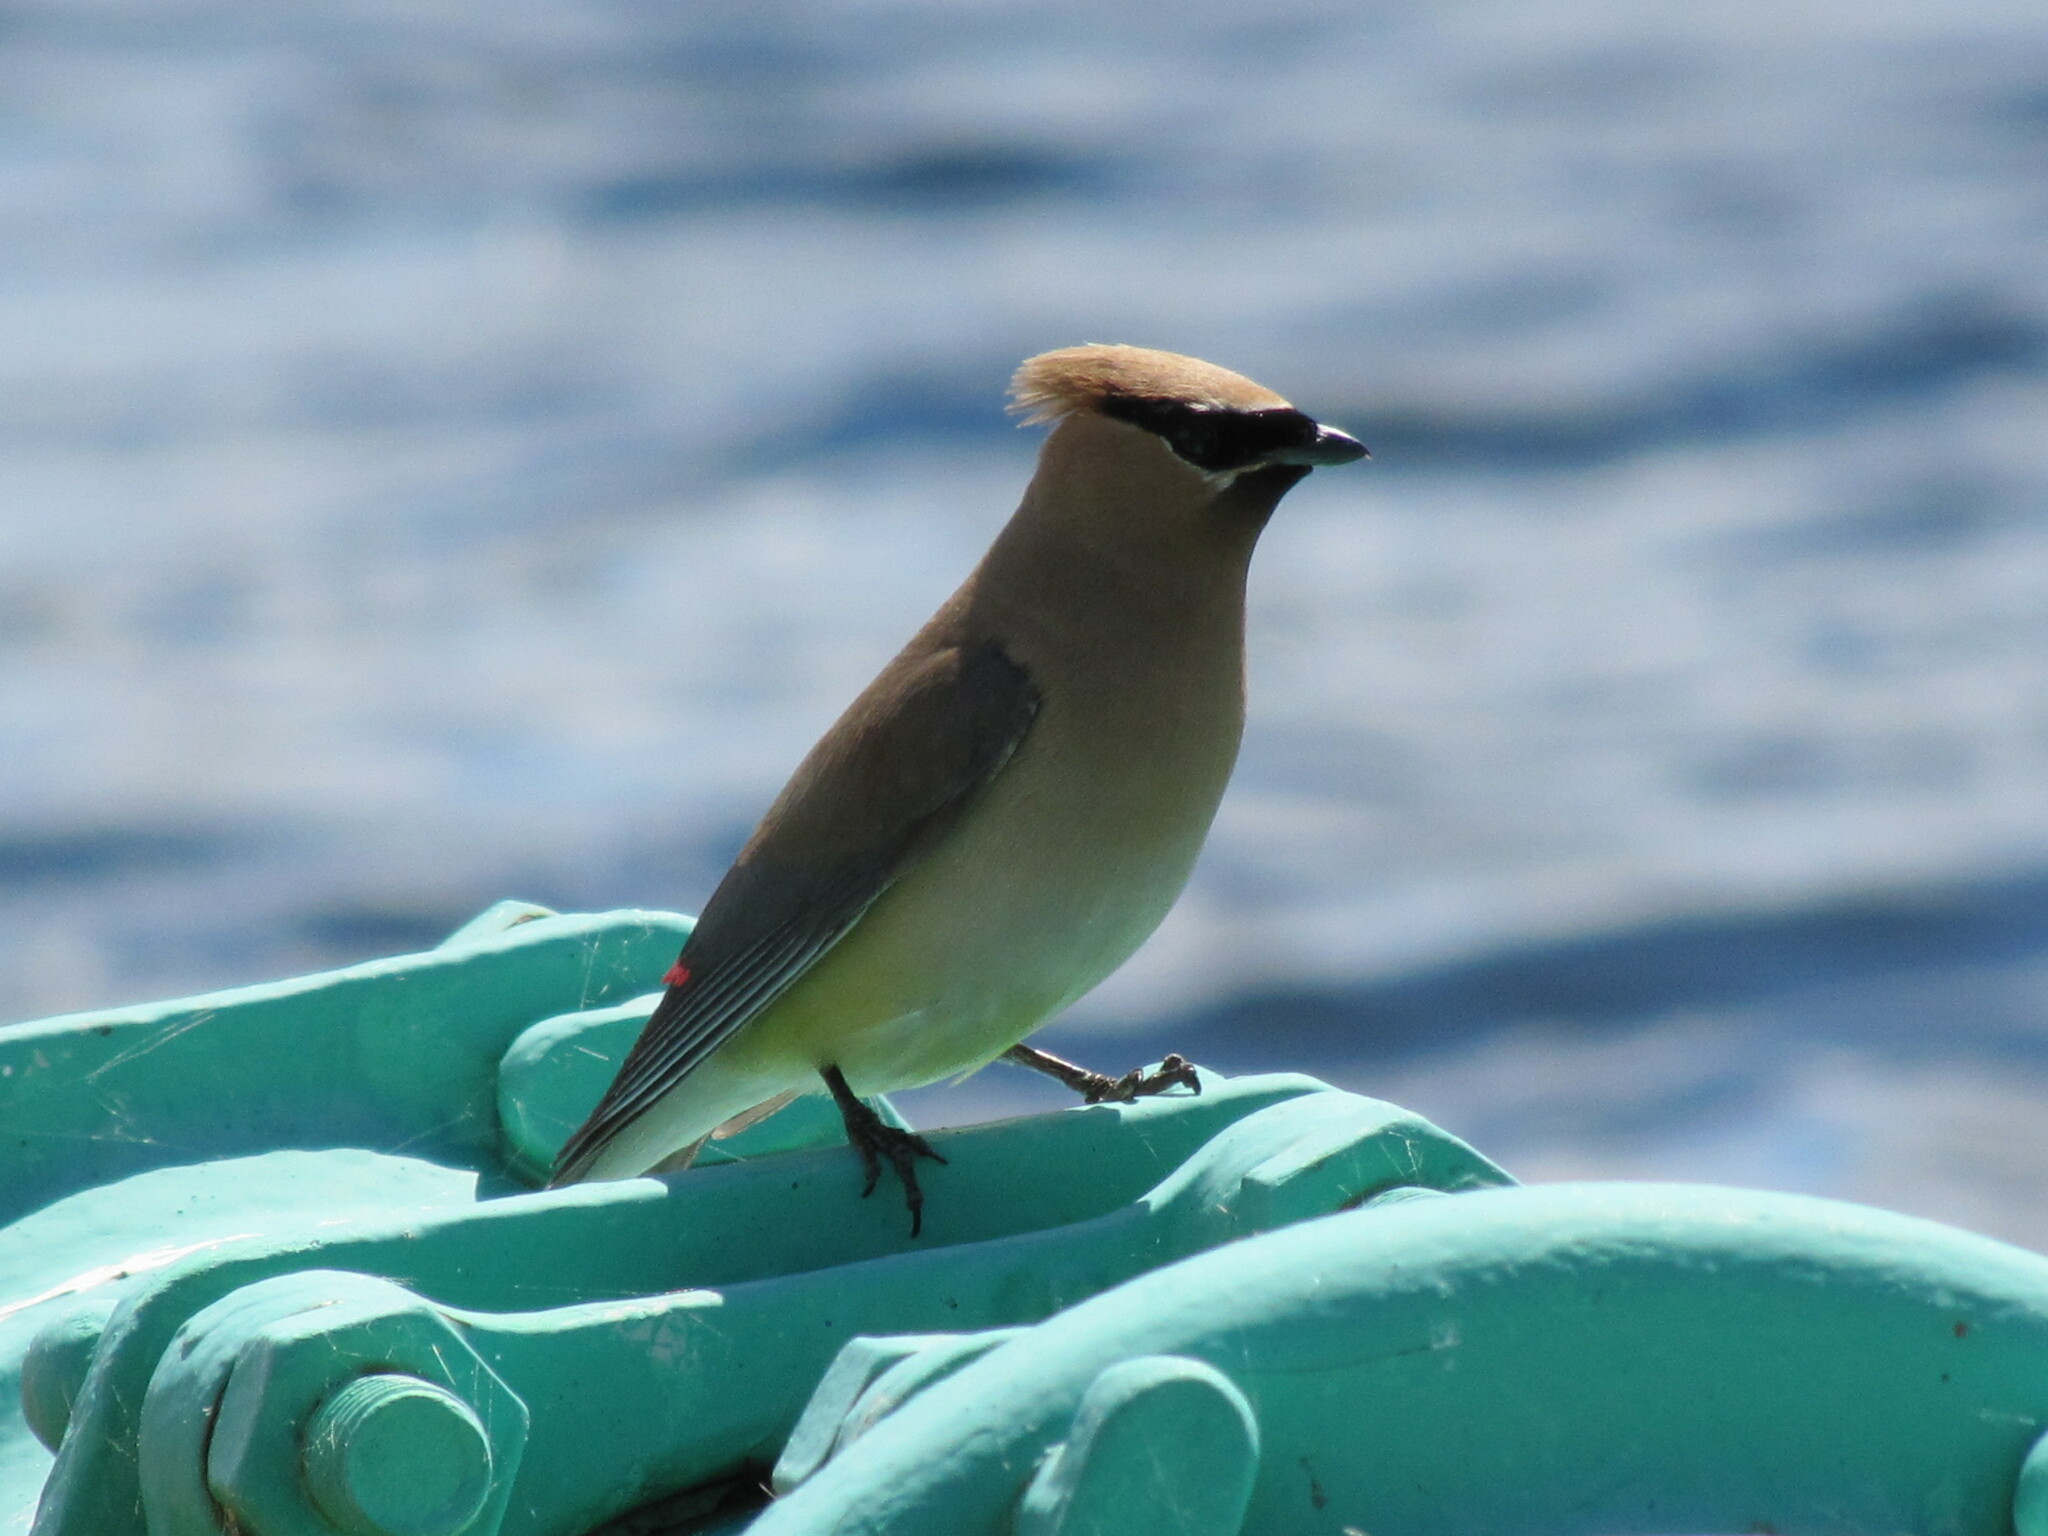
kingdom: Animalia
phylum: Chordata
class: Aves
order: Passeriformes
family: Bombycillidae
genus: Bombycilla
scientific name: Bombycilla cedrorum
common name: Cedar waxwing
